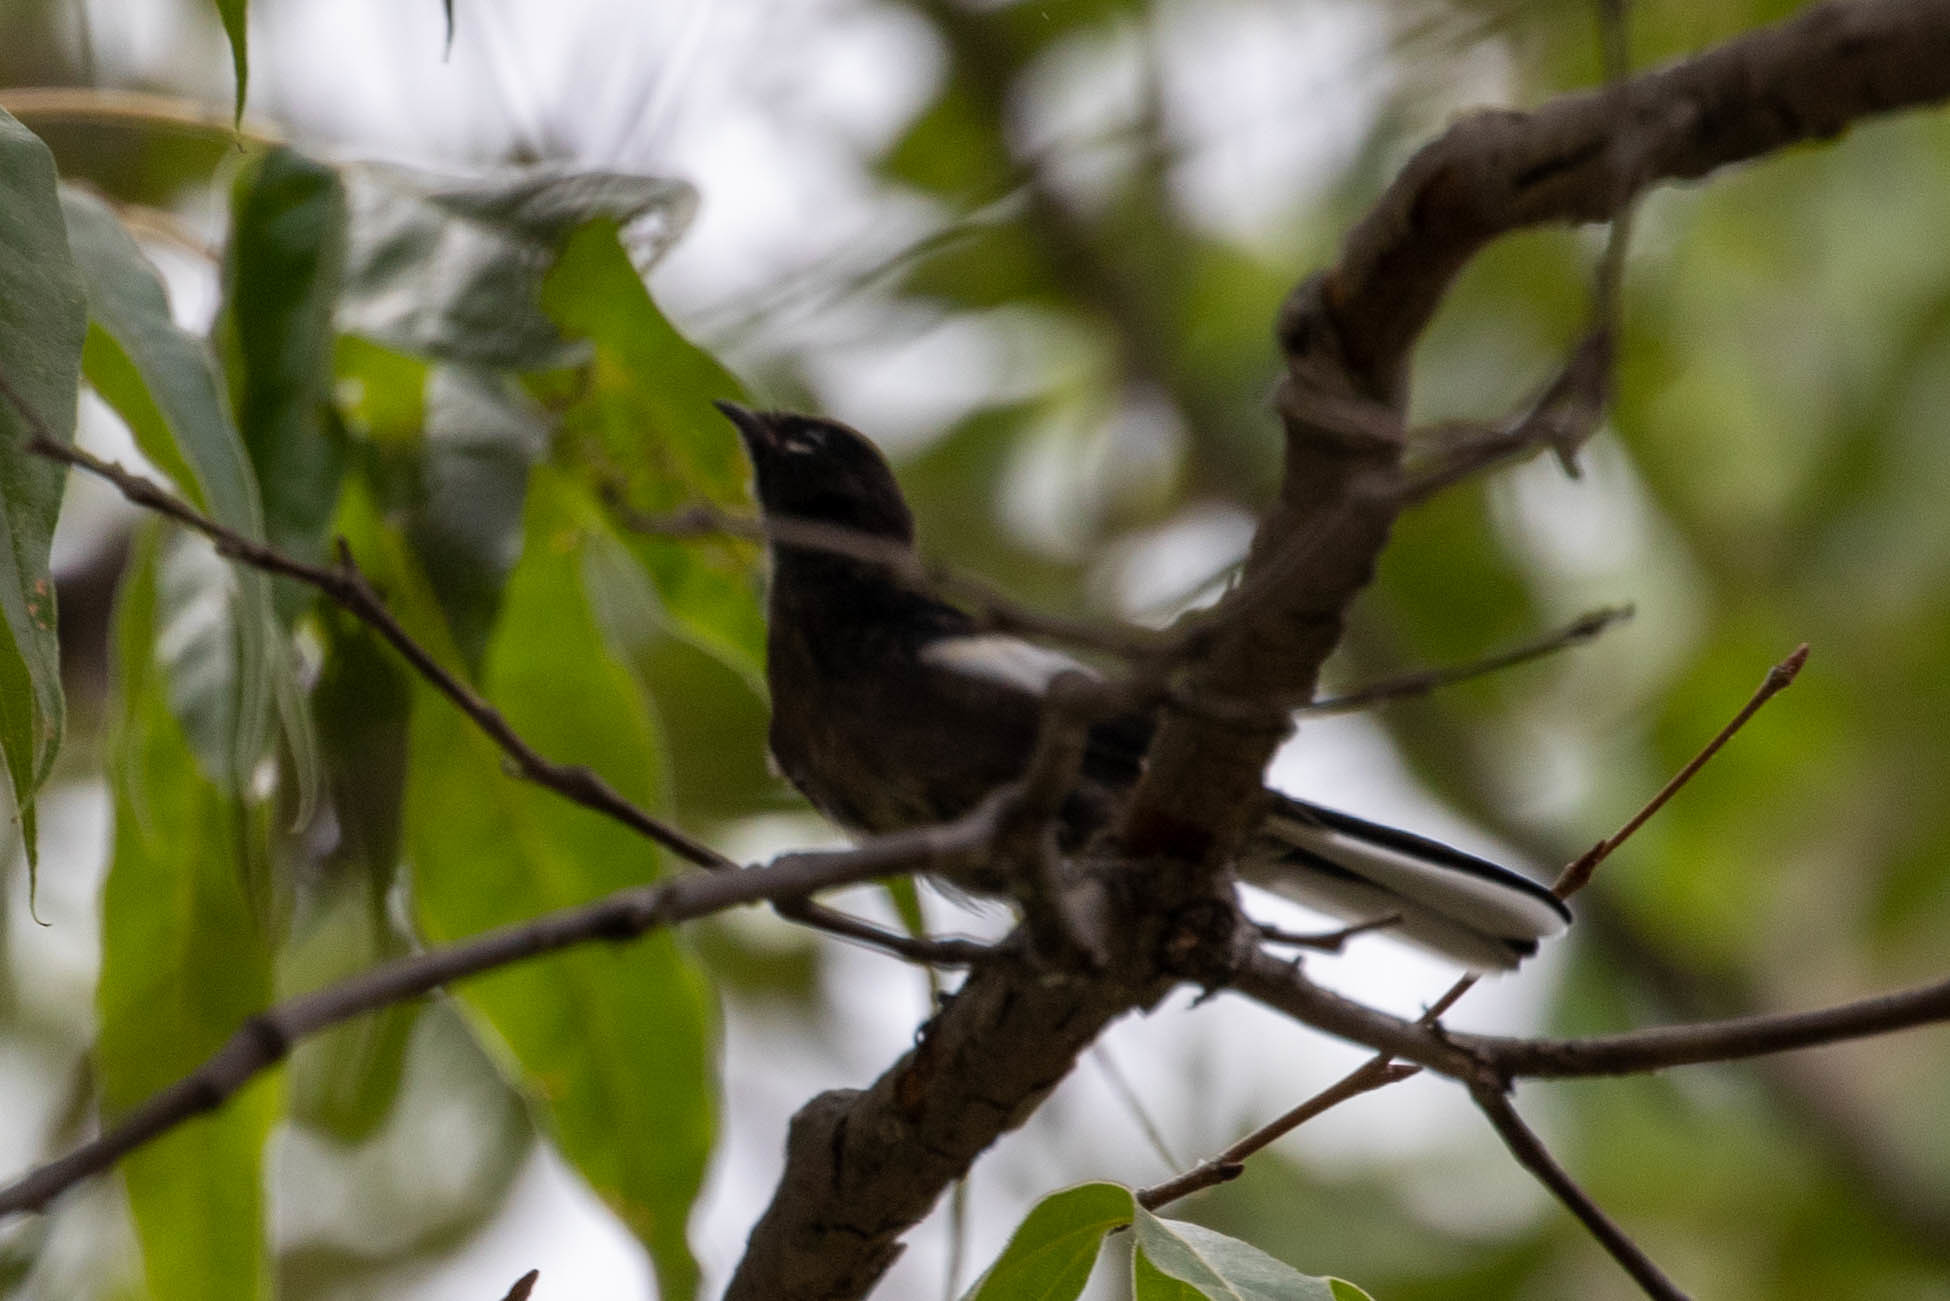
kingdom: Animalia
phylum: Chordata
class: Aves
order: Passeriformes
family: Parulidae
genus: Myioborus
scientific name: Myioborus pictus
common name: Painted whitestart
